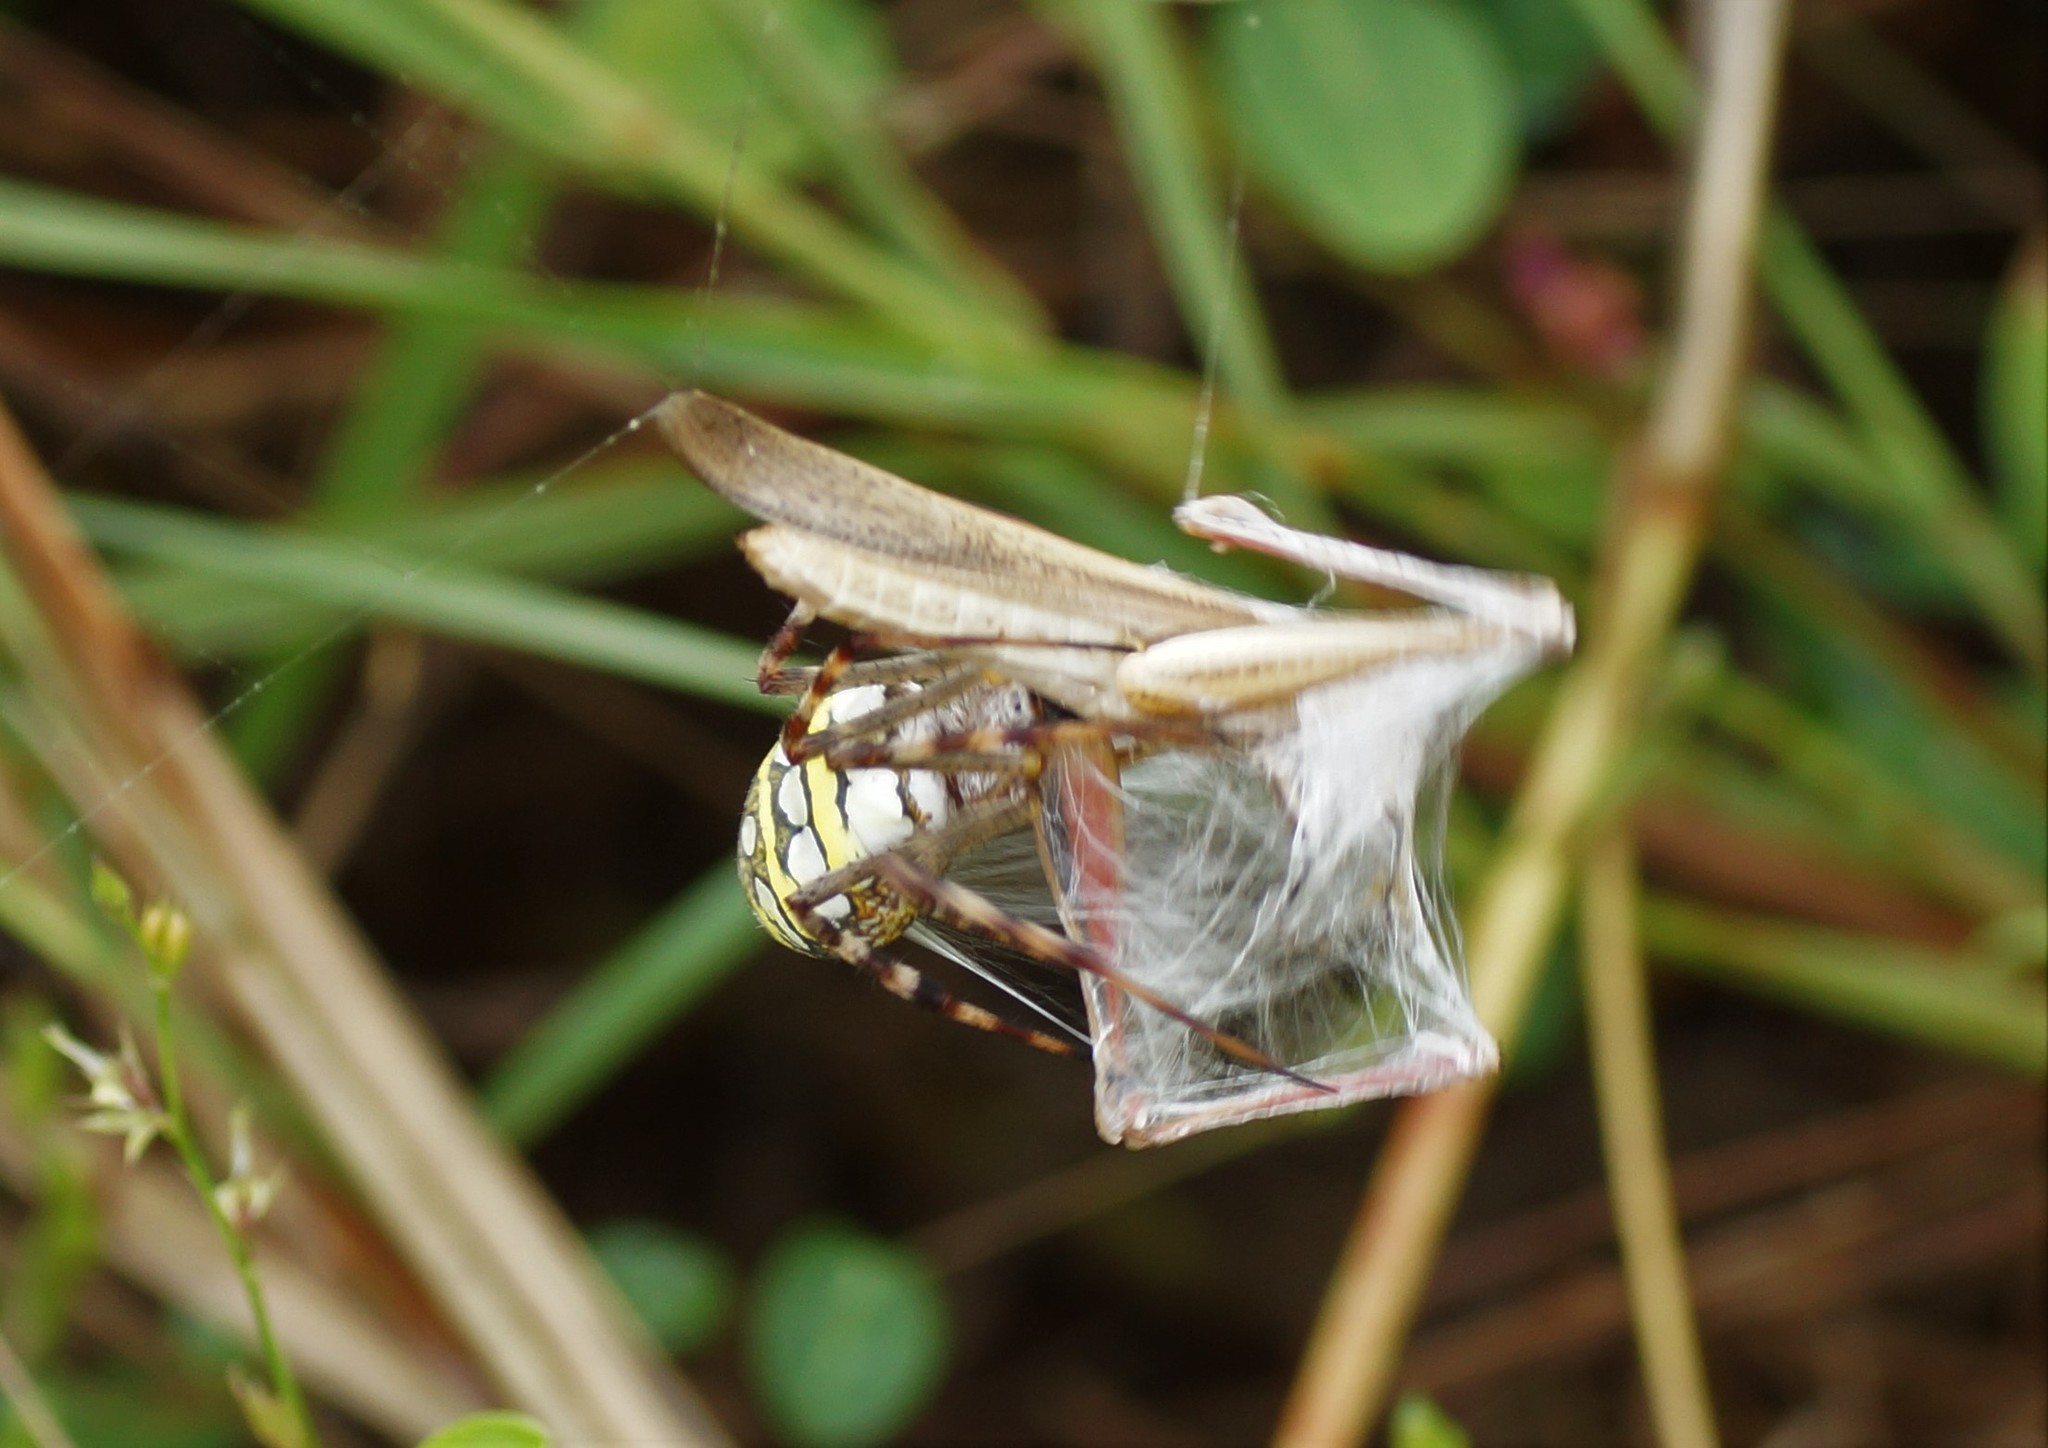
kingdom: Animalia
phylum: Arthropoda
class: Arachnida
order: Araneae
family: Araneidae
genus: Argiope
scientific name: Argiope picta
